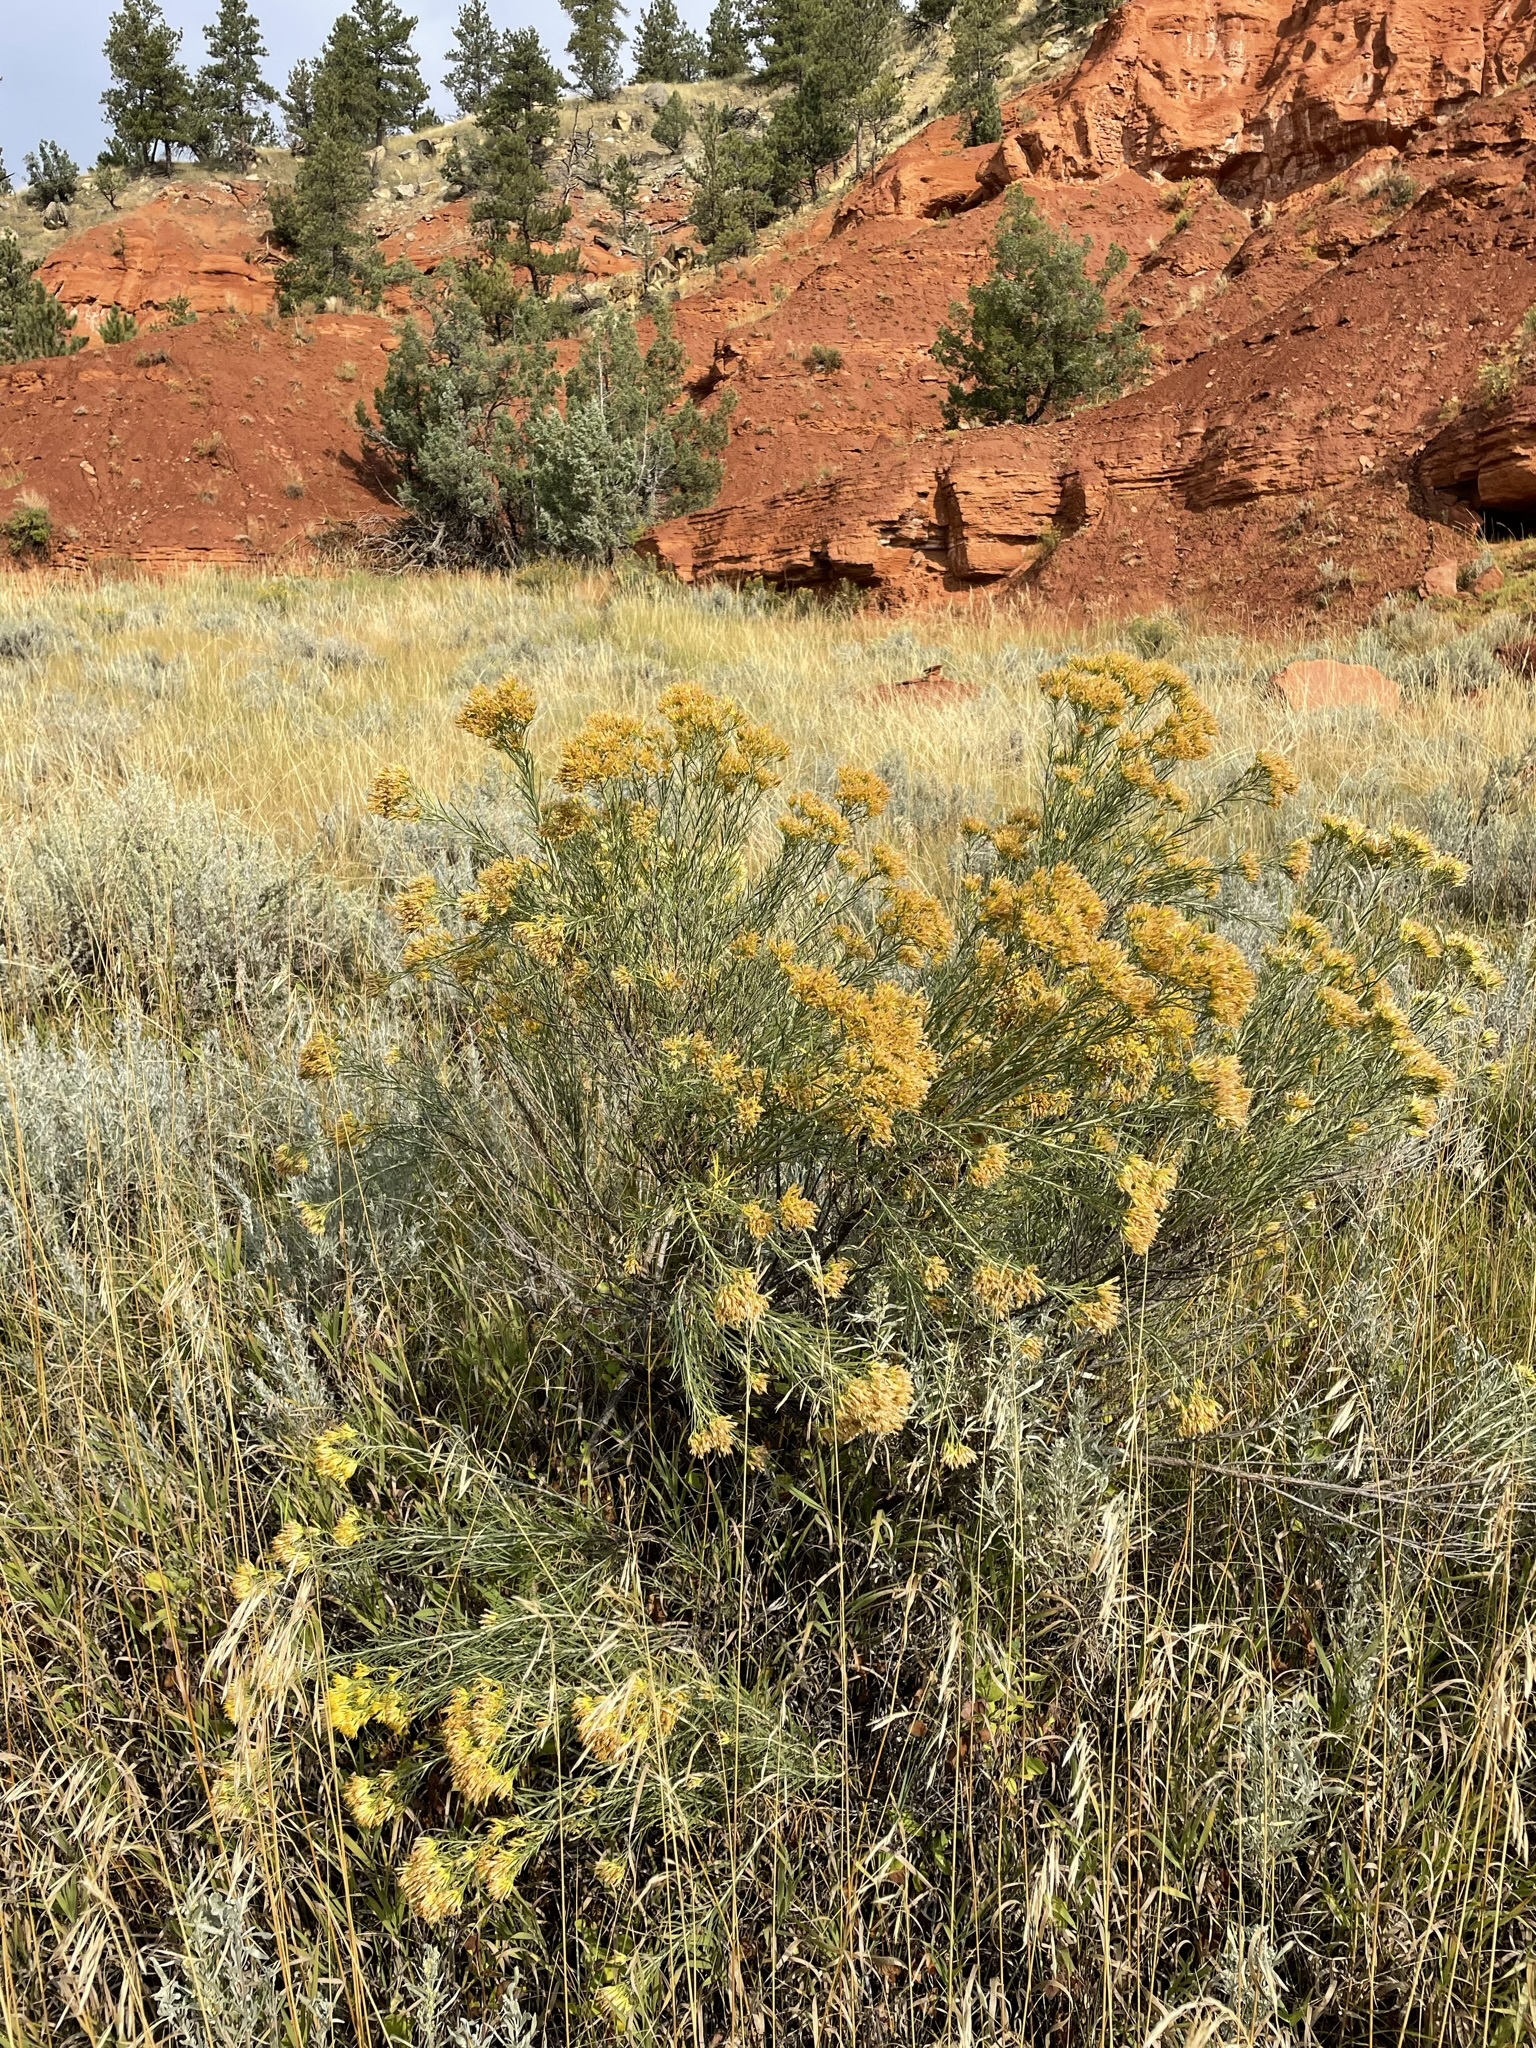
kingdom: Plantae
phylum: Tracheophyta
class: Magnoliopsida
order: Asterales
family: Asteraceae
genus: Ericameria
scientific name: Ericameria nauseosa
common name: Rubber rabbitbrush
